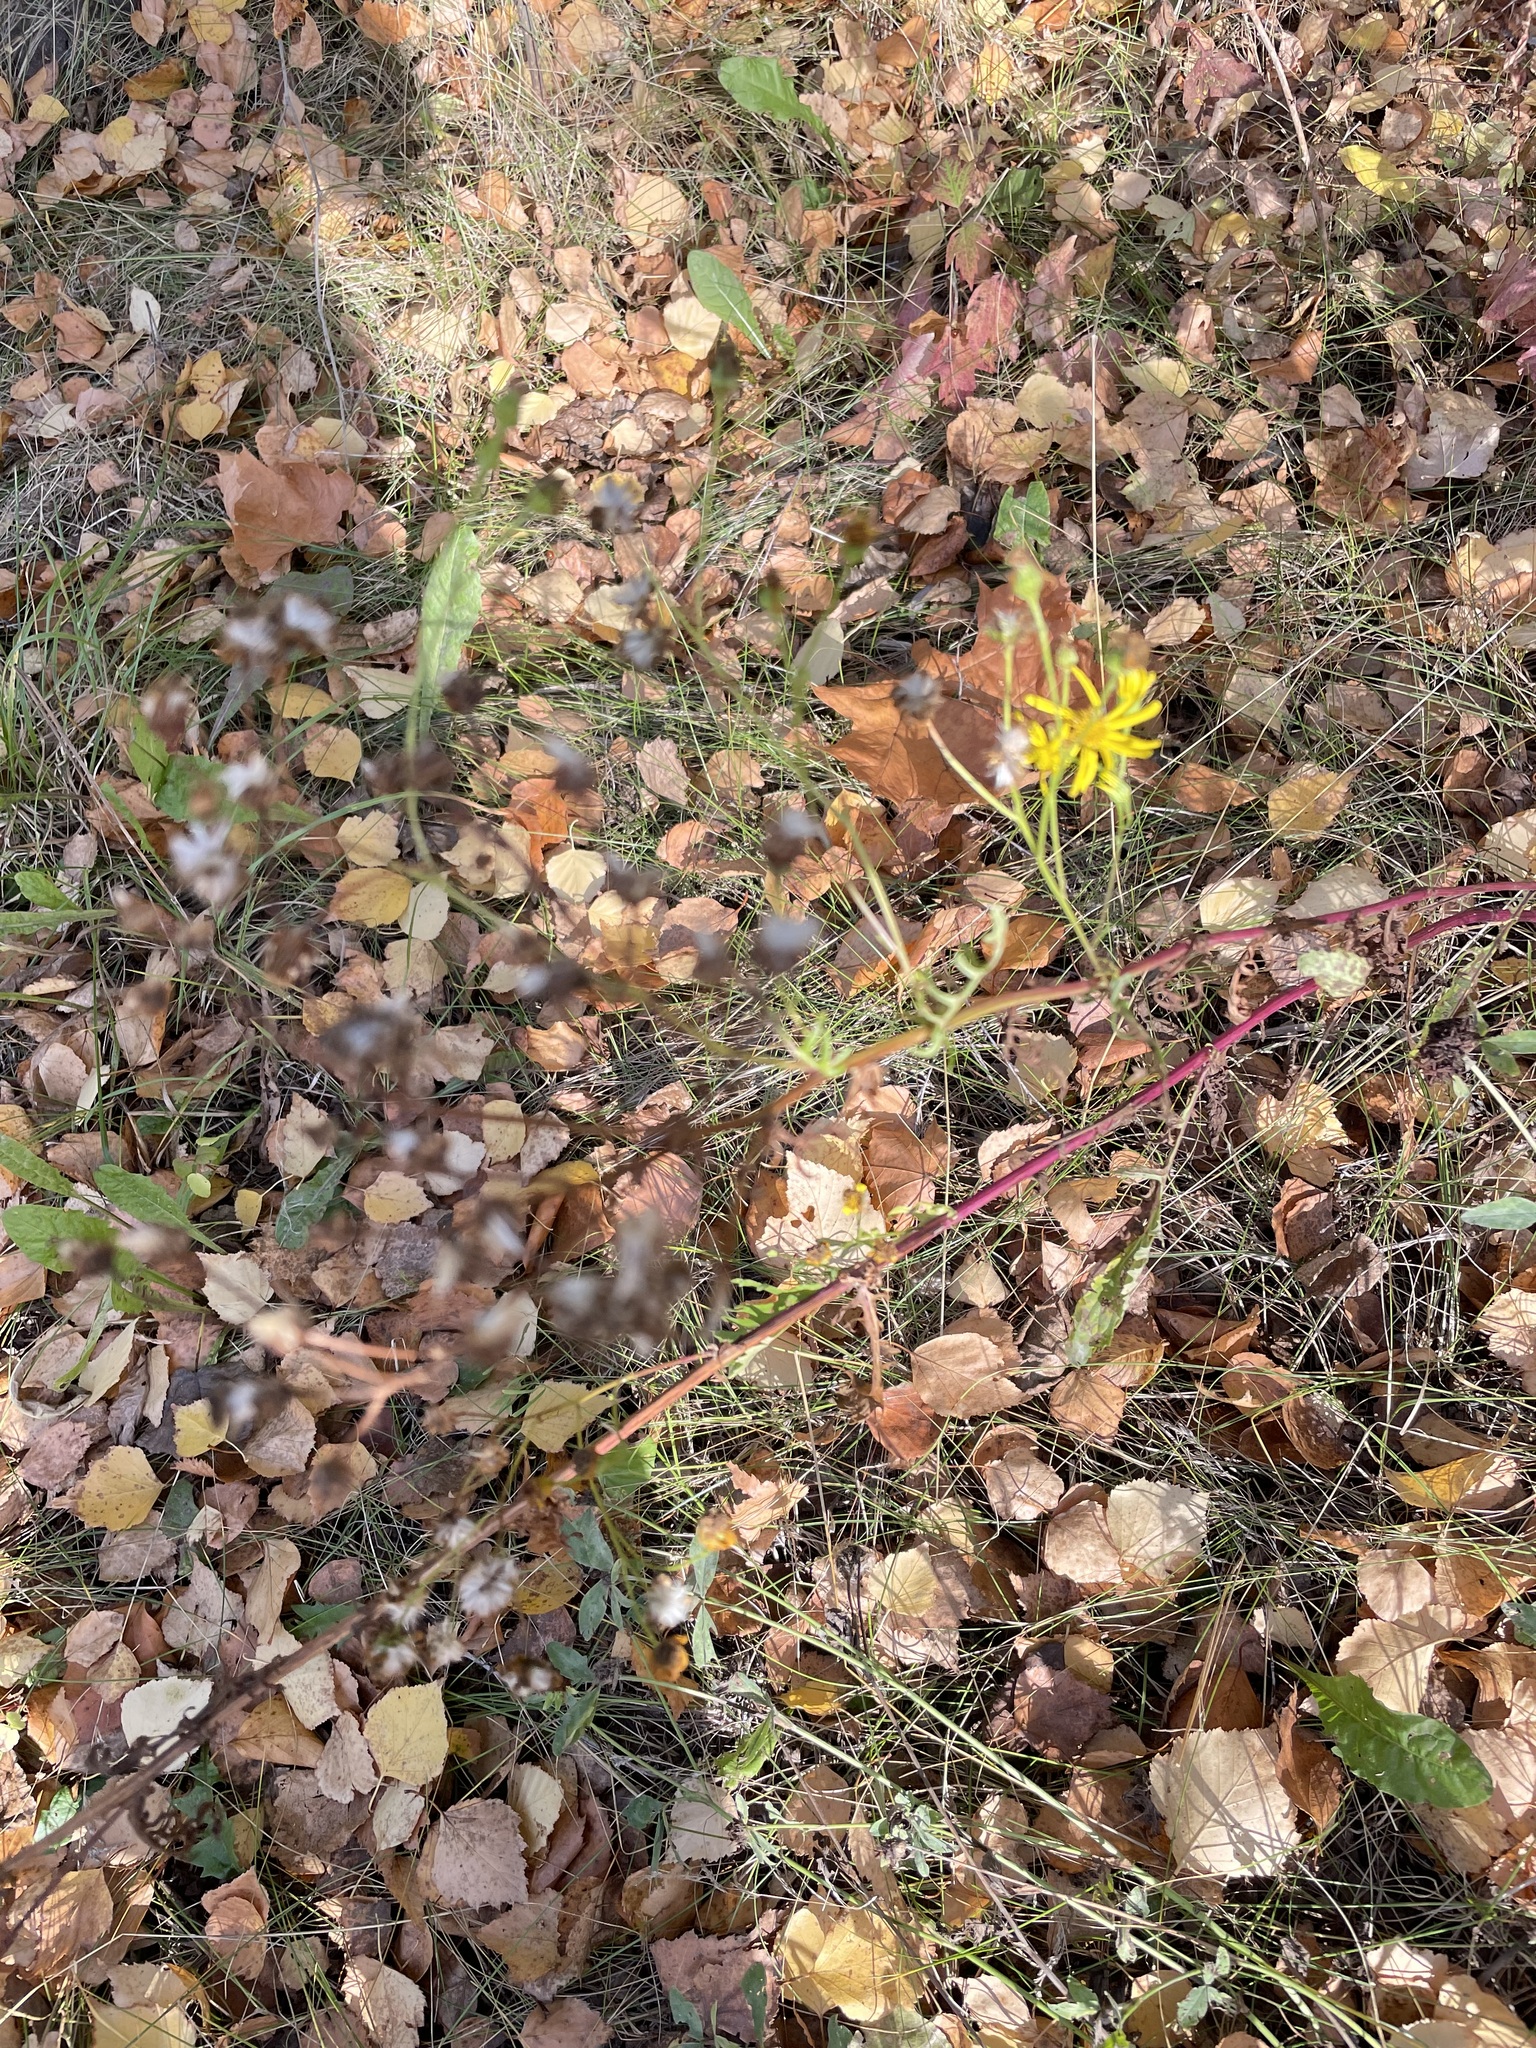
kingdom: Plantae
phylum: Tracheophyta
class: Magnoliopsida
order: Asterales
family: Asteraceae
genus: Jacobaea
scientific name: Jacobaea vulgaris
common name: Stinking willie
